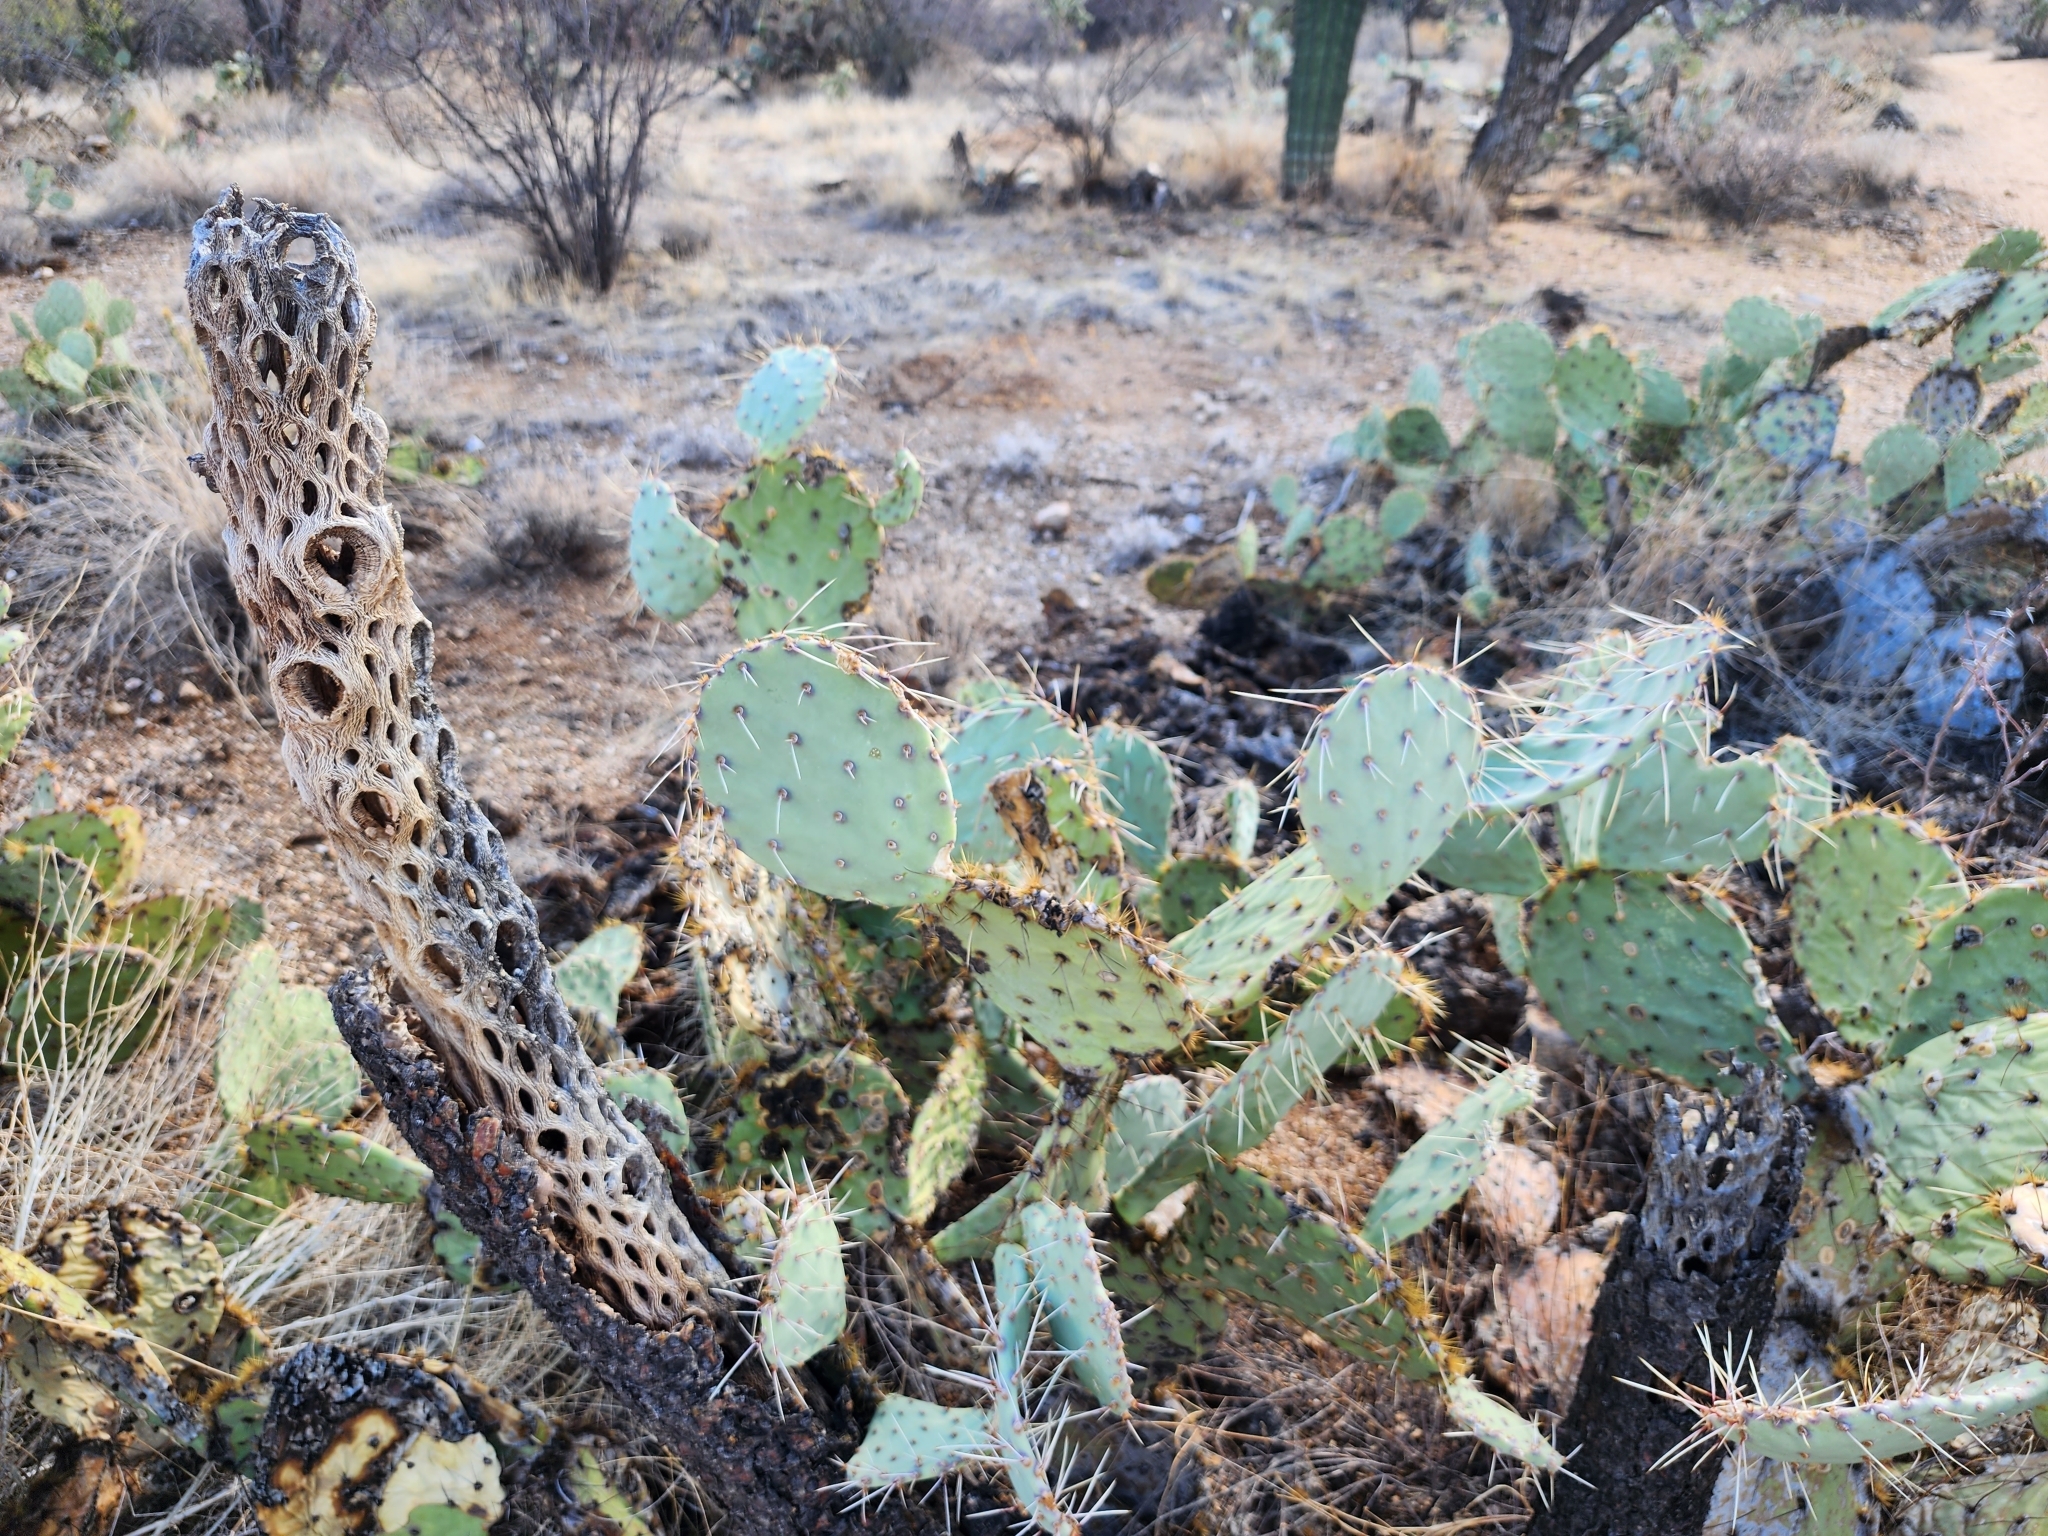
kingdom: Plantae
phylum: Tracheophyta
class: Magnoliopsida
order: Caryophyllales
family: Cactaceae
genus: Cylindropuntia
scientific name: Cylindropuntia fosbergii
